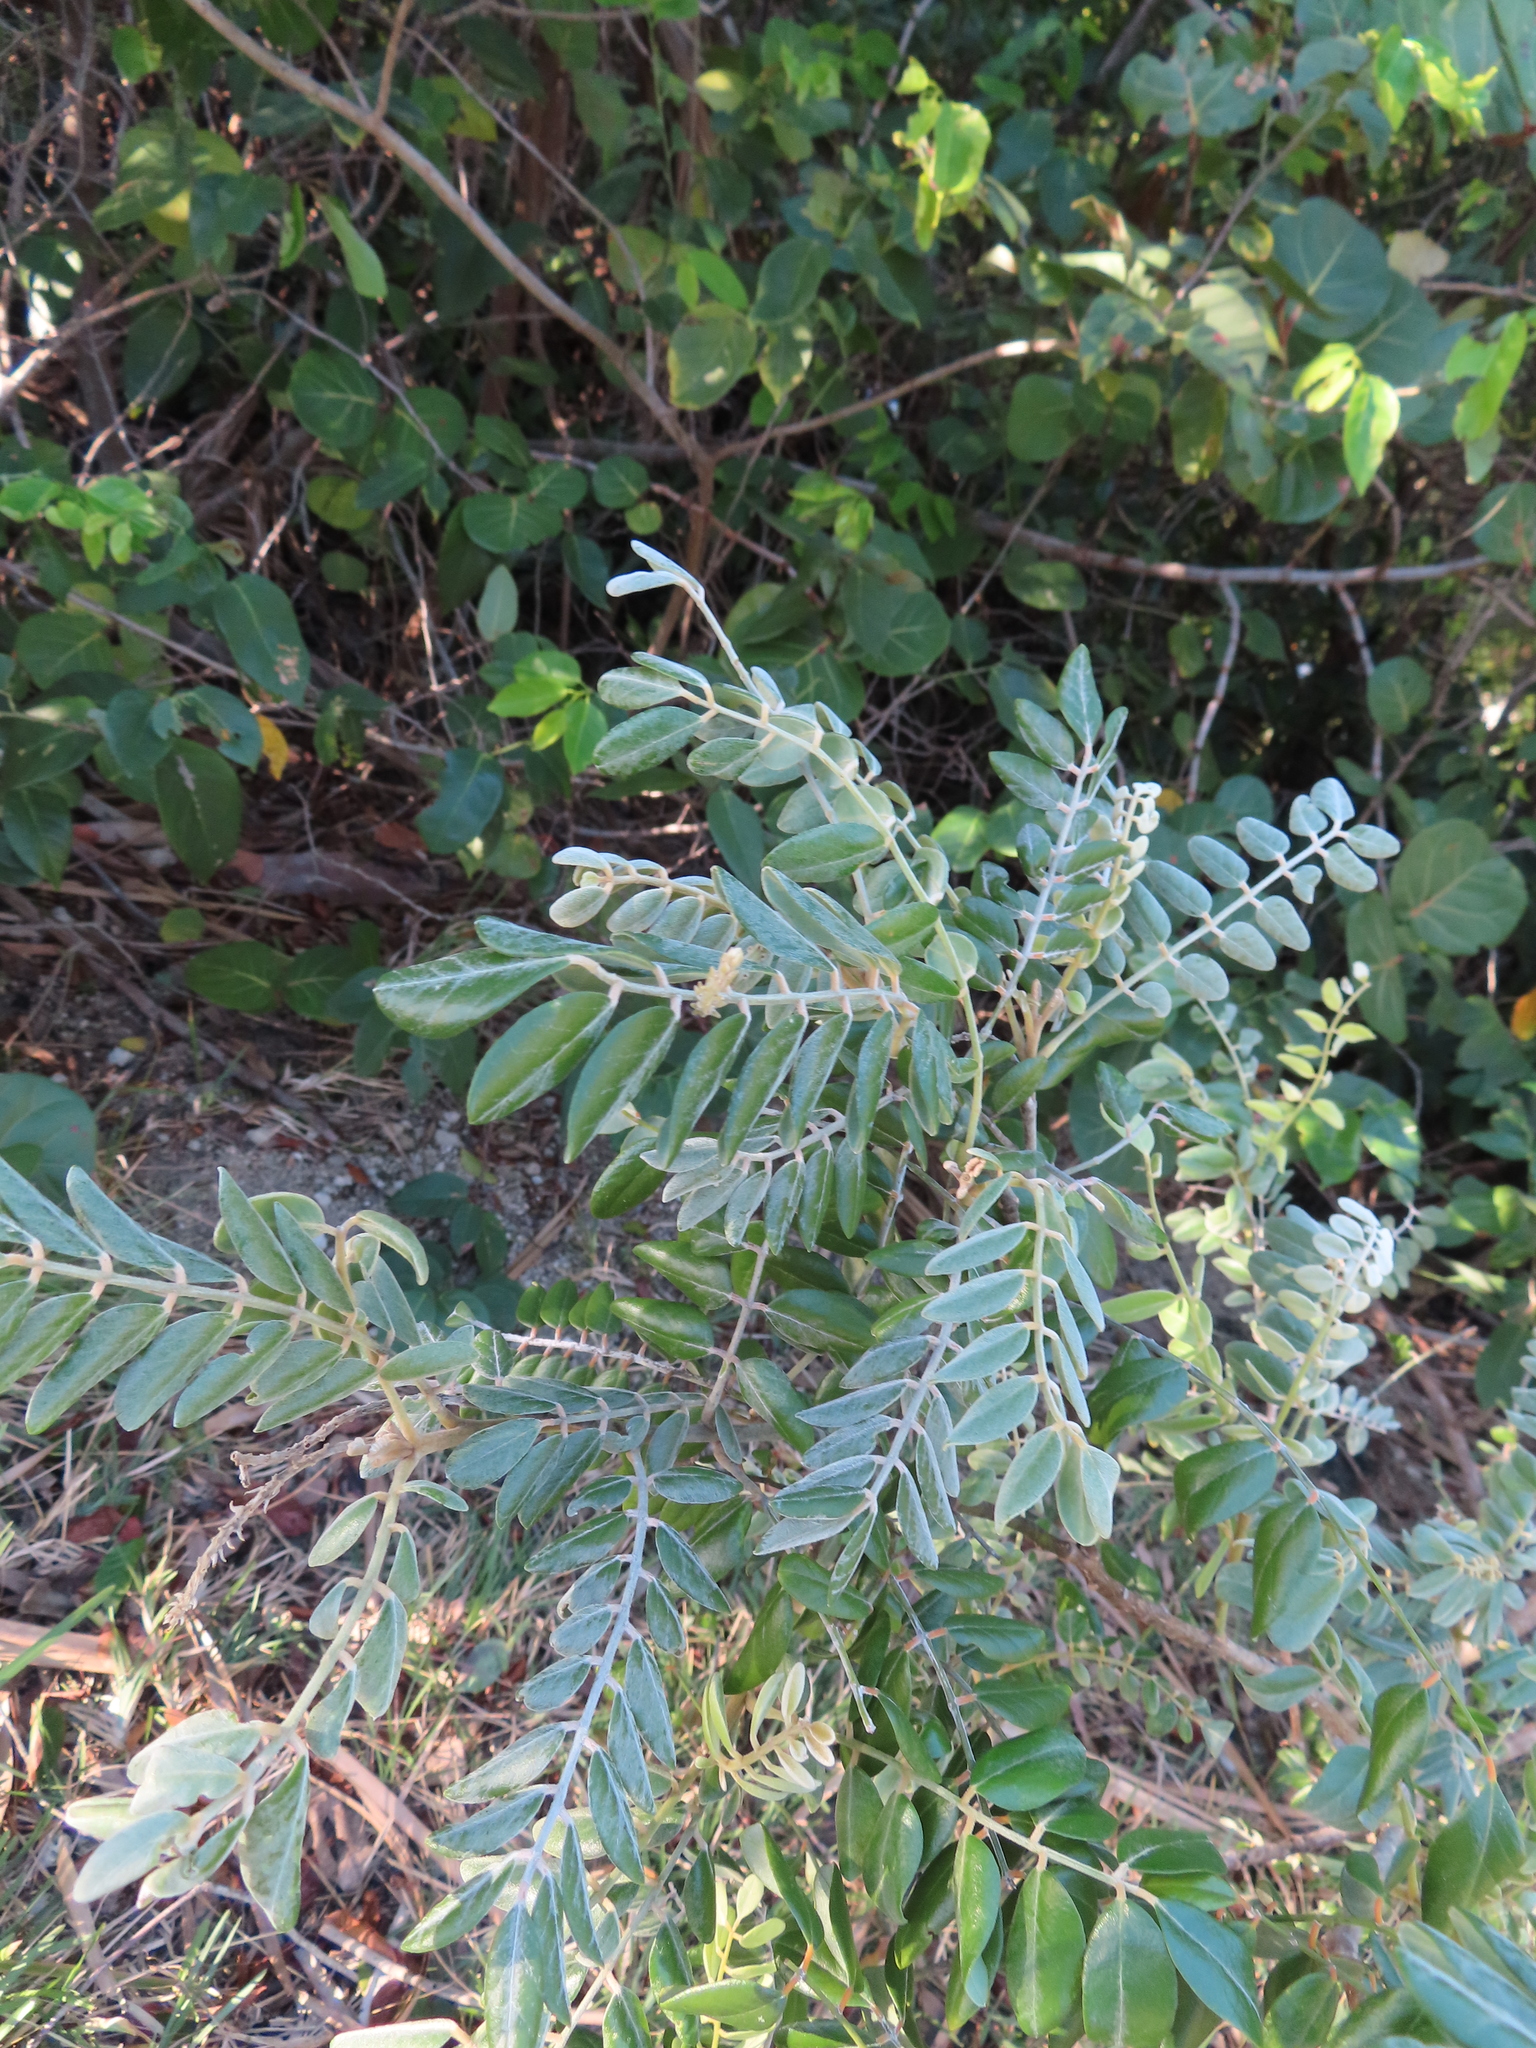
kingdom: Plantae
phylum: Tracheophyta
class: Magnoliopsida
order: Fabales
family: Fabaceae
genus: Sophora
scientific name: Sophora tomentosa
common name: Yellow necklacepod
